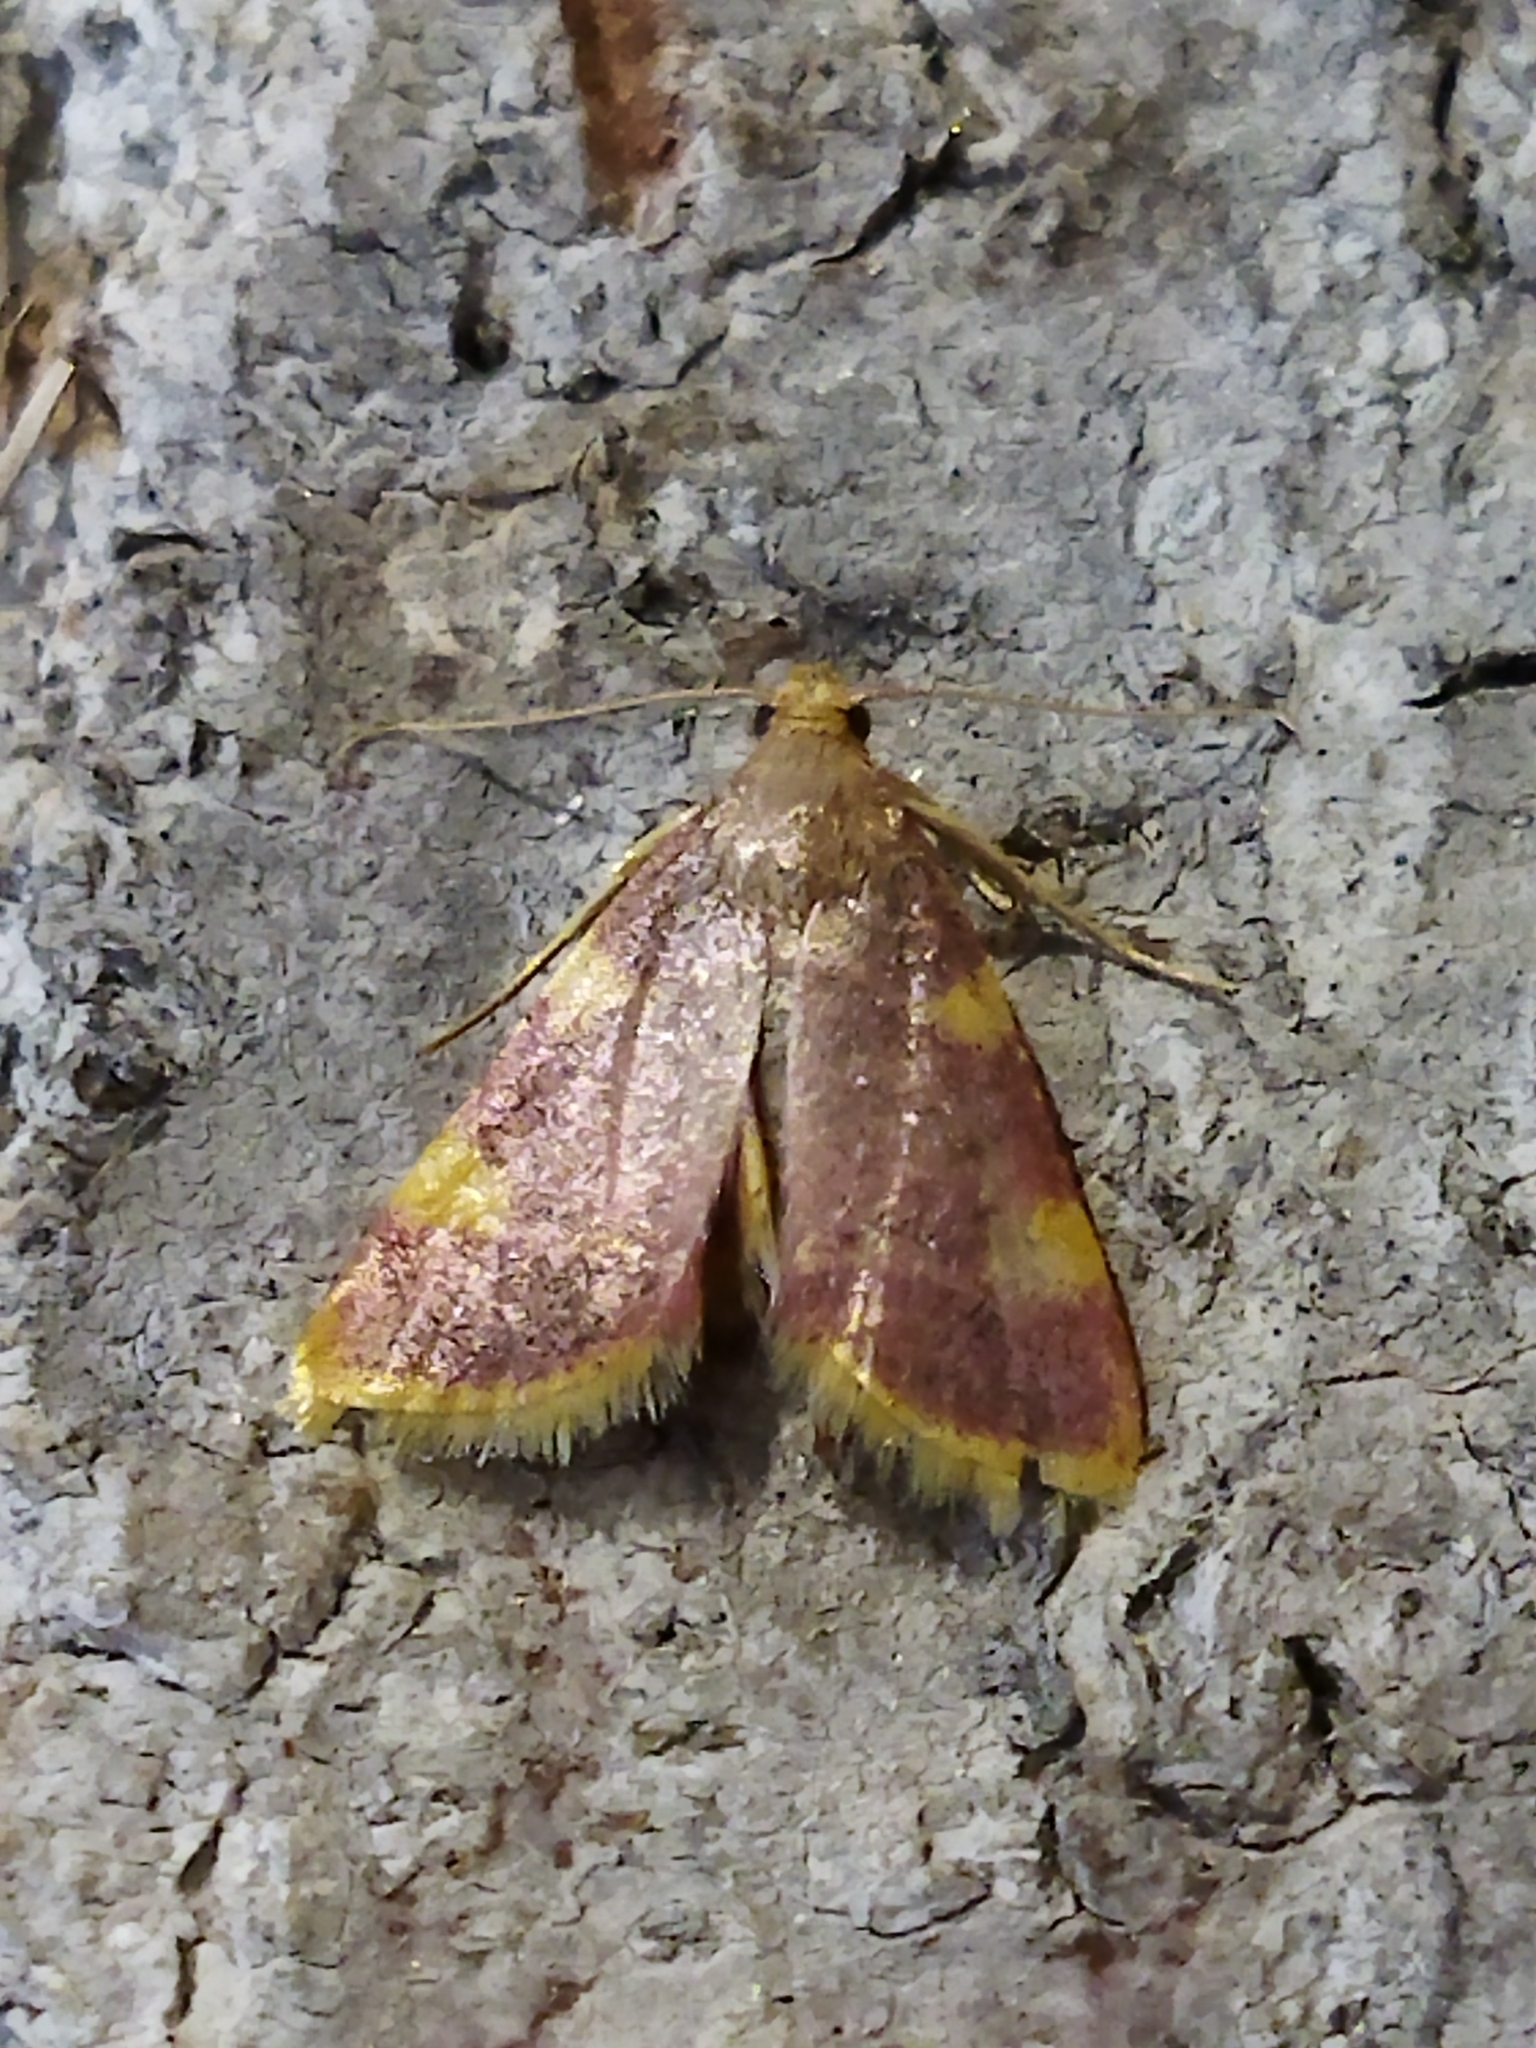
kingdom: Animalia
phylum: Arthropoda
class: Insecta
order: Lepidoptera
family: Pyralidae
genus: Hypsopygia
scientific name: Hypsopygia costalis
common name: Gold triangle
